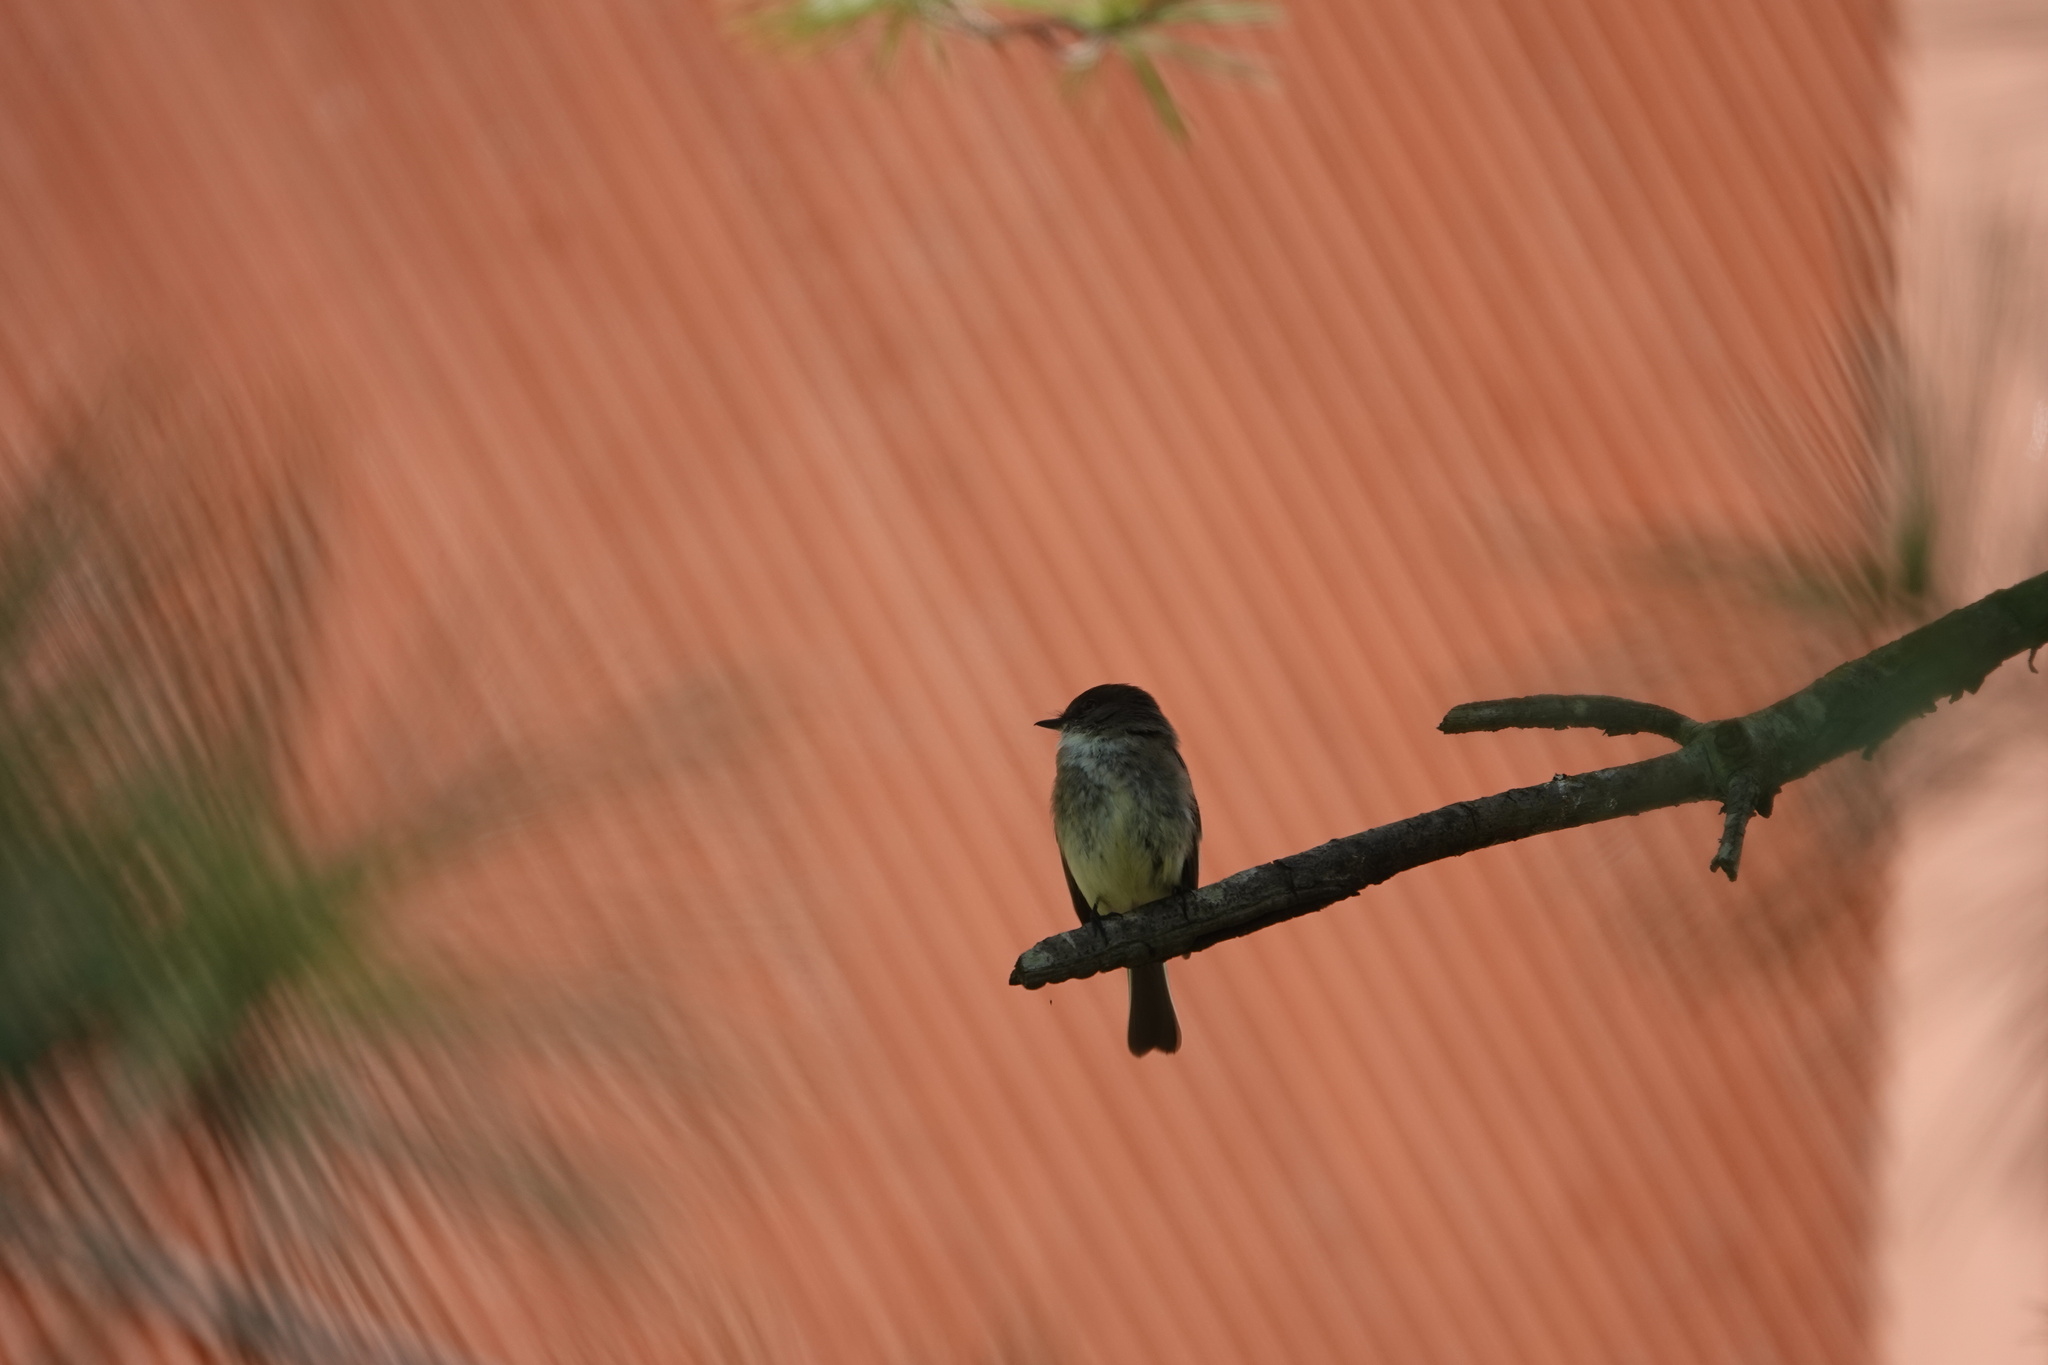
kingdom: Animalia
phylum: Chordata
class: Aves
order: Passeriformes
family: Tyrannidae
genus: Sayornis
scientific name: Sayornis phoebe
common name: Eastern phoebe
